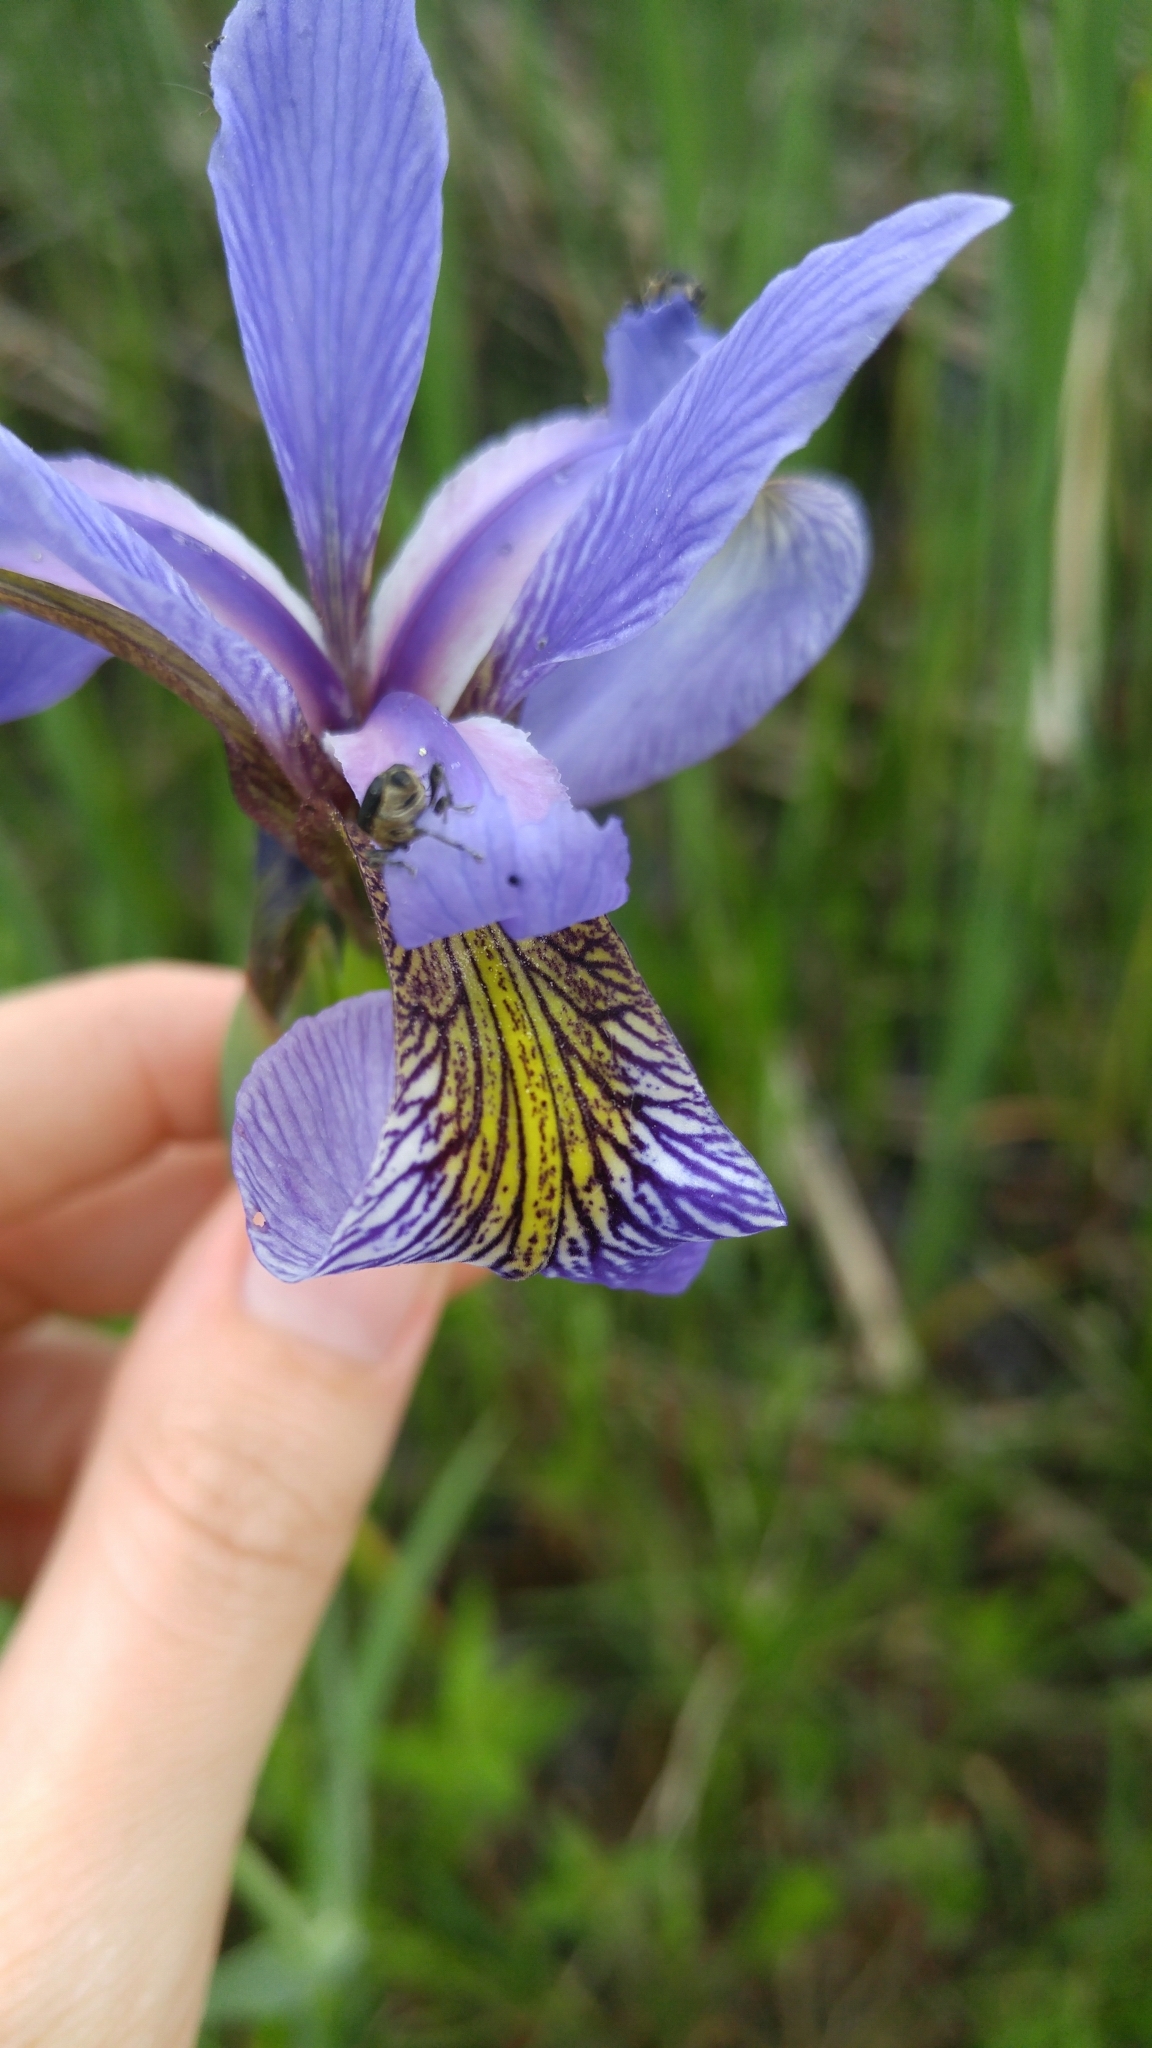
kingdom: Animalia
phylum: Arthropoda
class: Insecta
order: Coleoptera
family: Curculionidae
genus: Mononychus
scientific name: Mononychus vulpeculus
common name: Iris weevil
